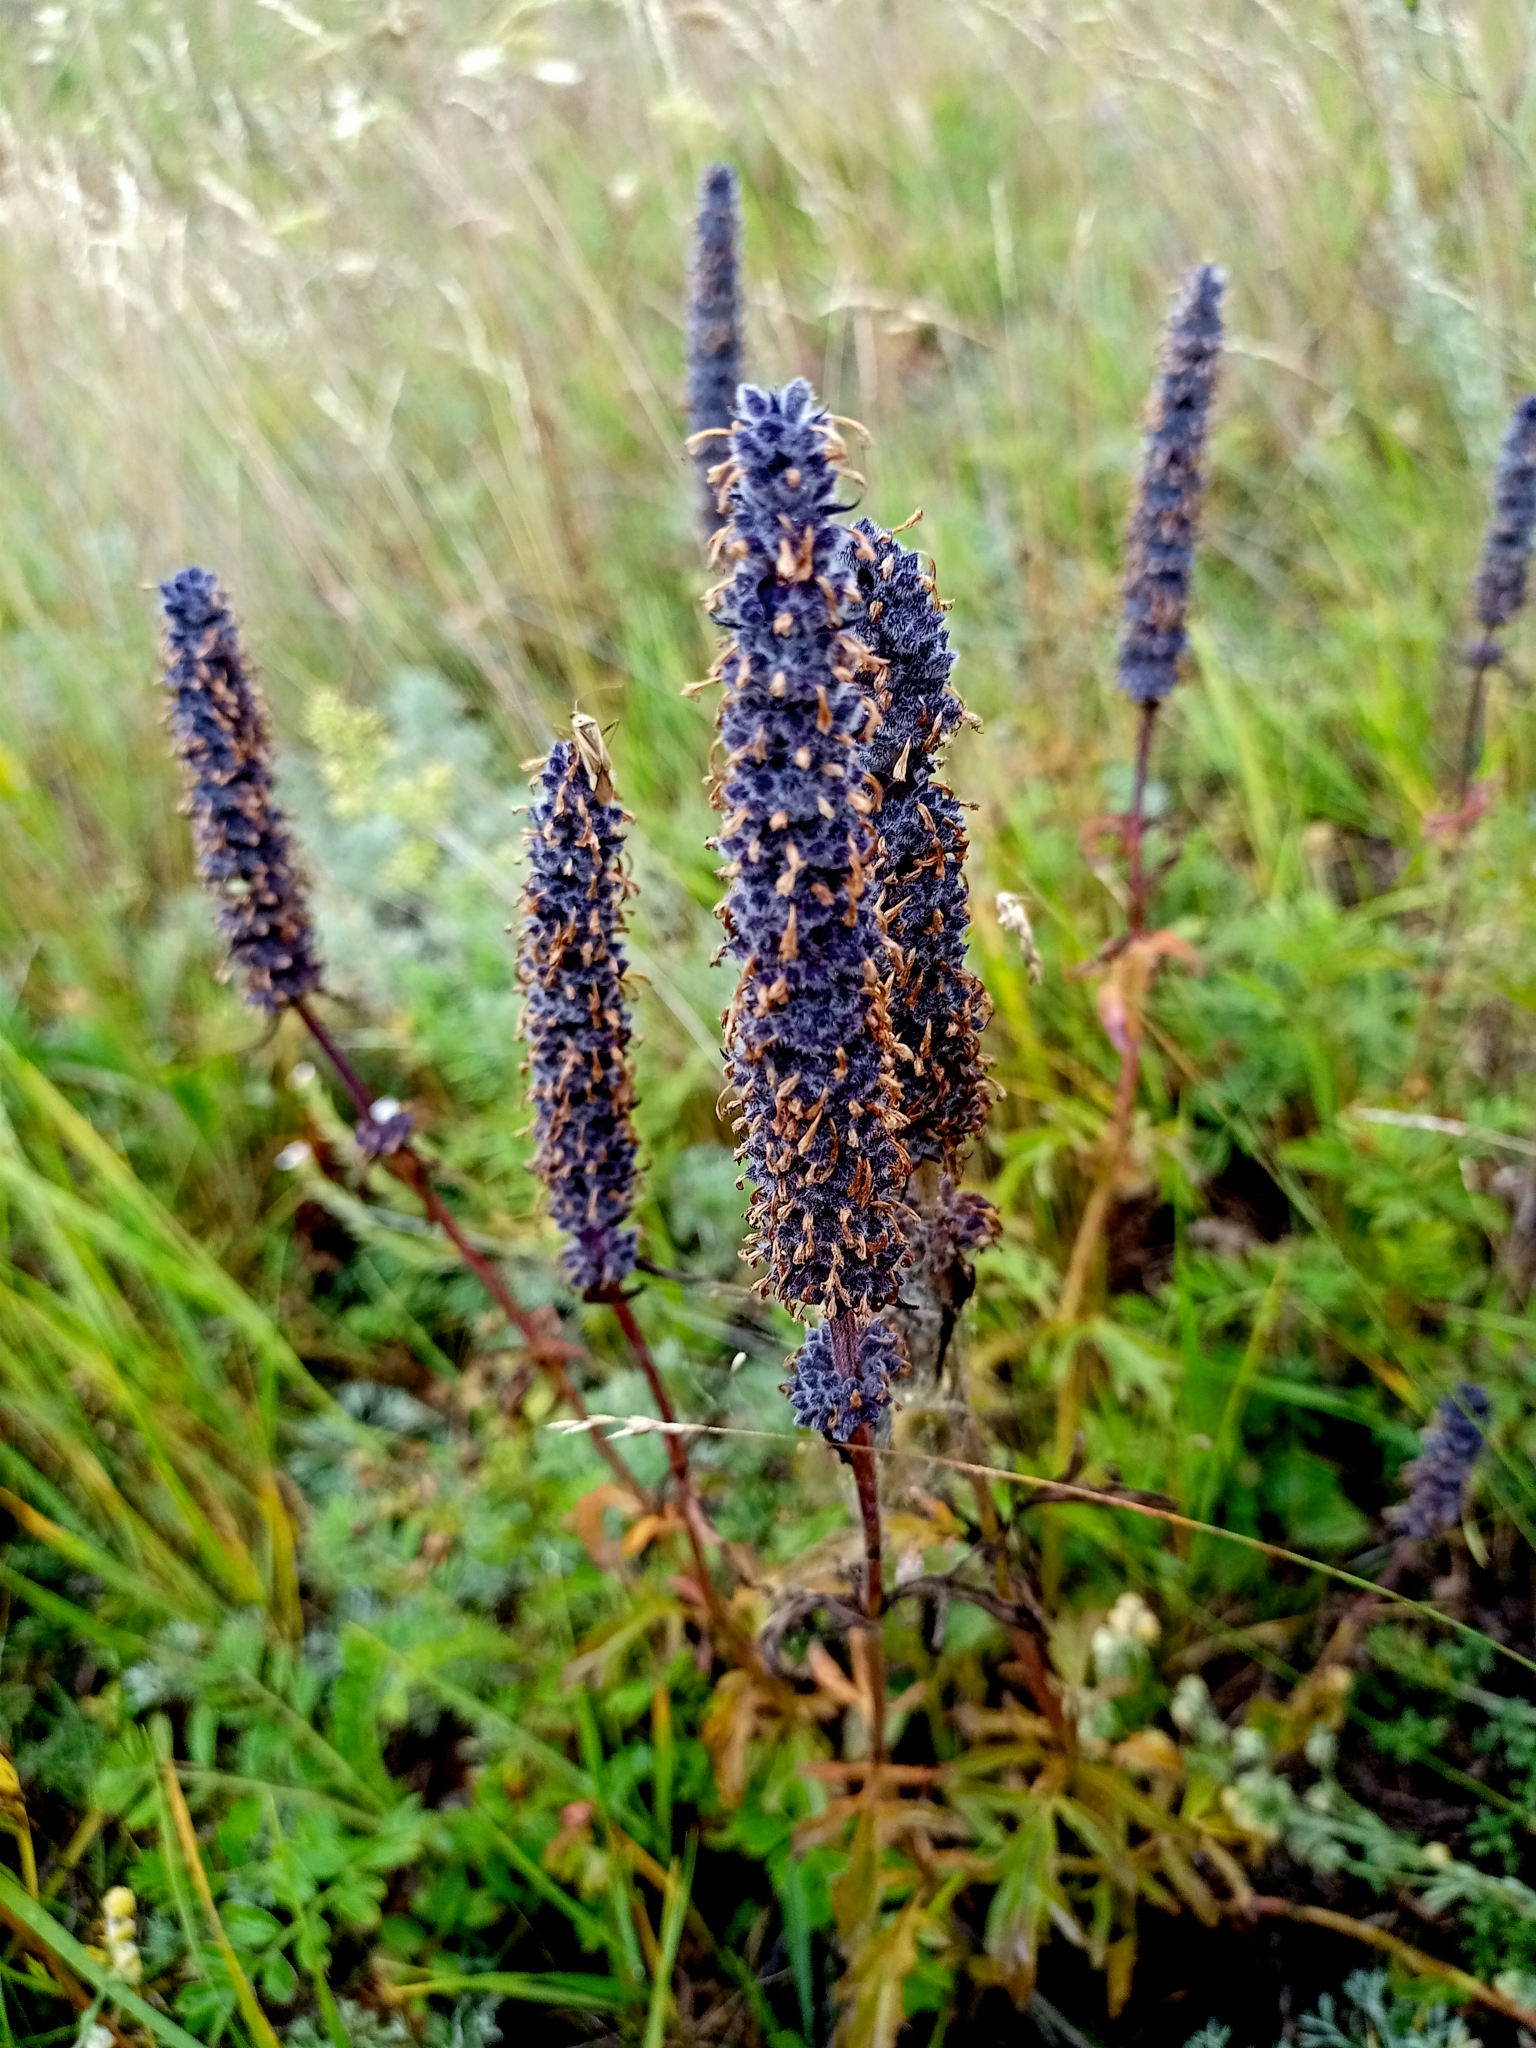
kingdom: Plantae
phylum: Tracheophyta
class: Magnoliopsida
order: Lamiales
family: Lamiaceae
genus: Nepeta
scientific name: Nepeta multifida
